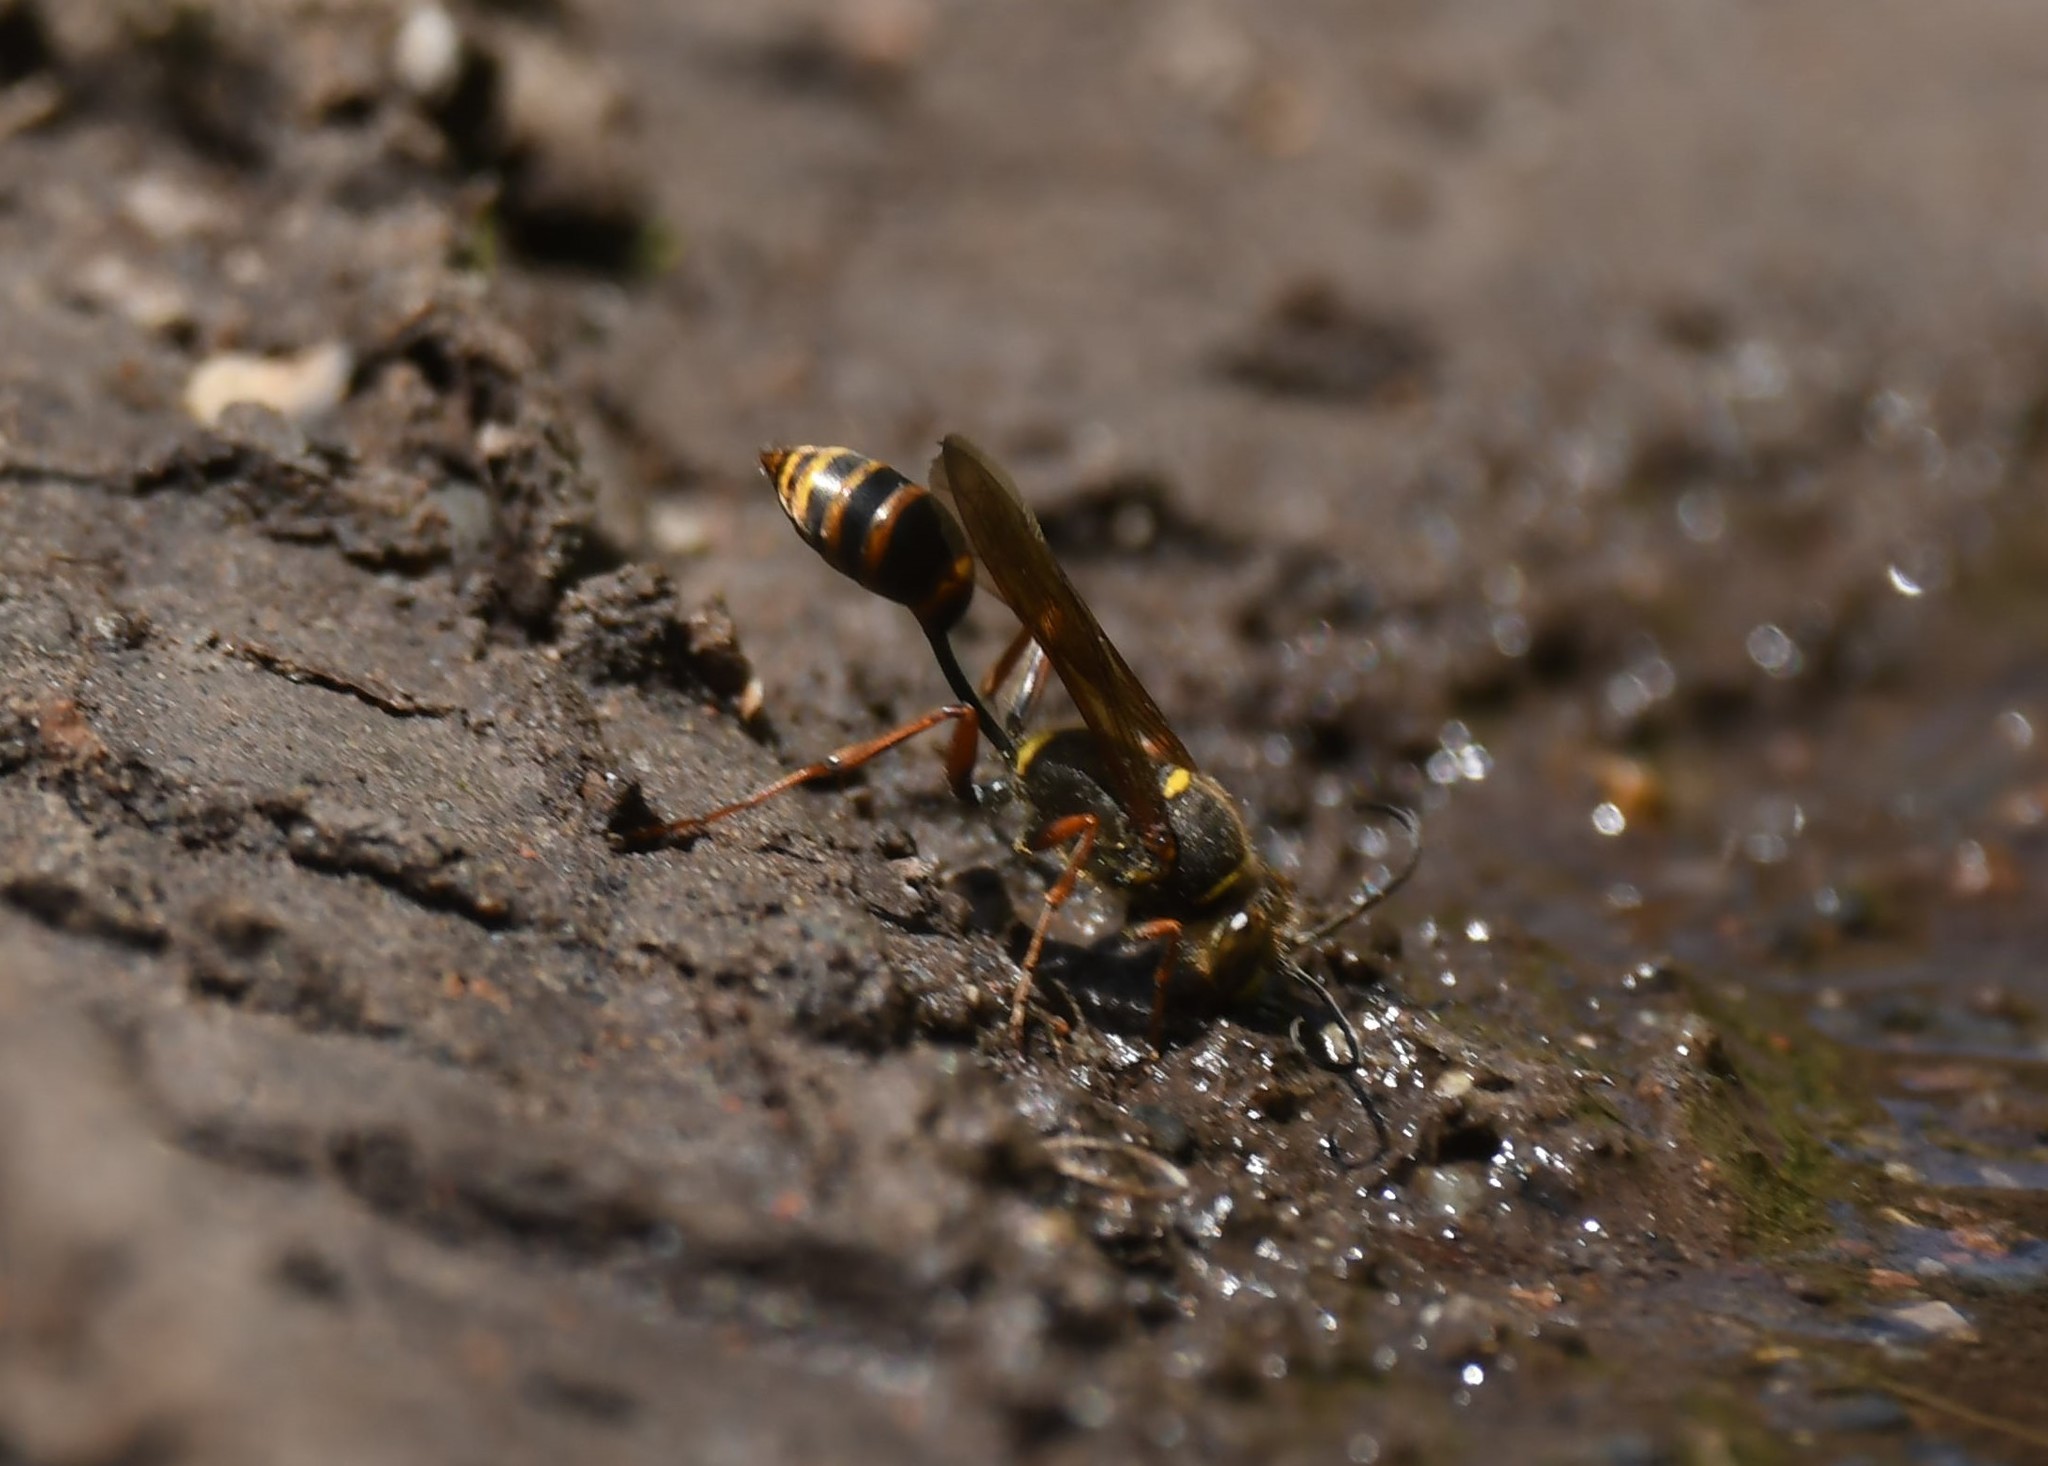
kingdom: Animalia
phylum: Arthropoda
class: Insecta
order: Hymenoptera
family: Sphecidae
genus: Sceliphron
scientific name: Sceliphron curvatum
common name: Pèlopèe
